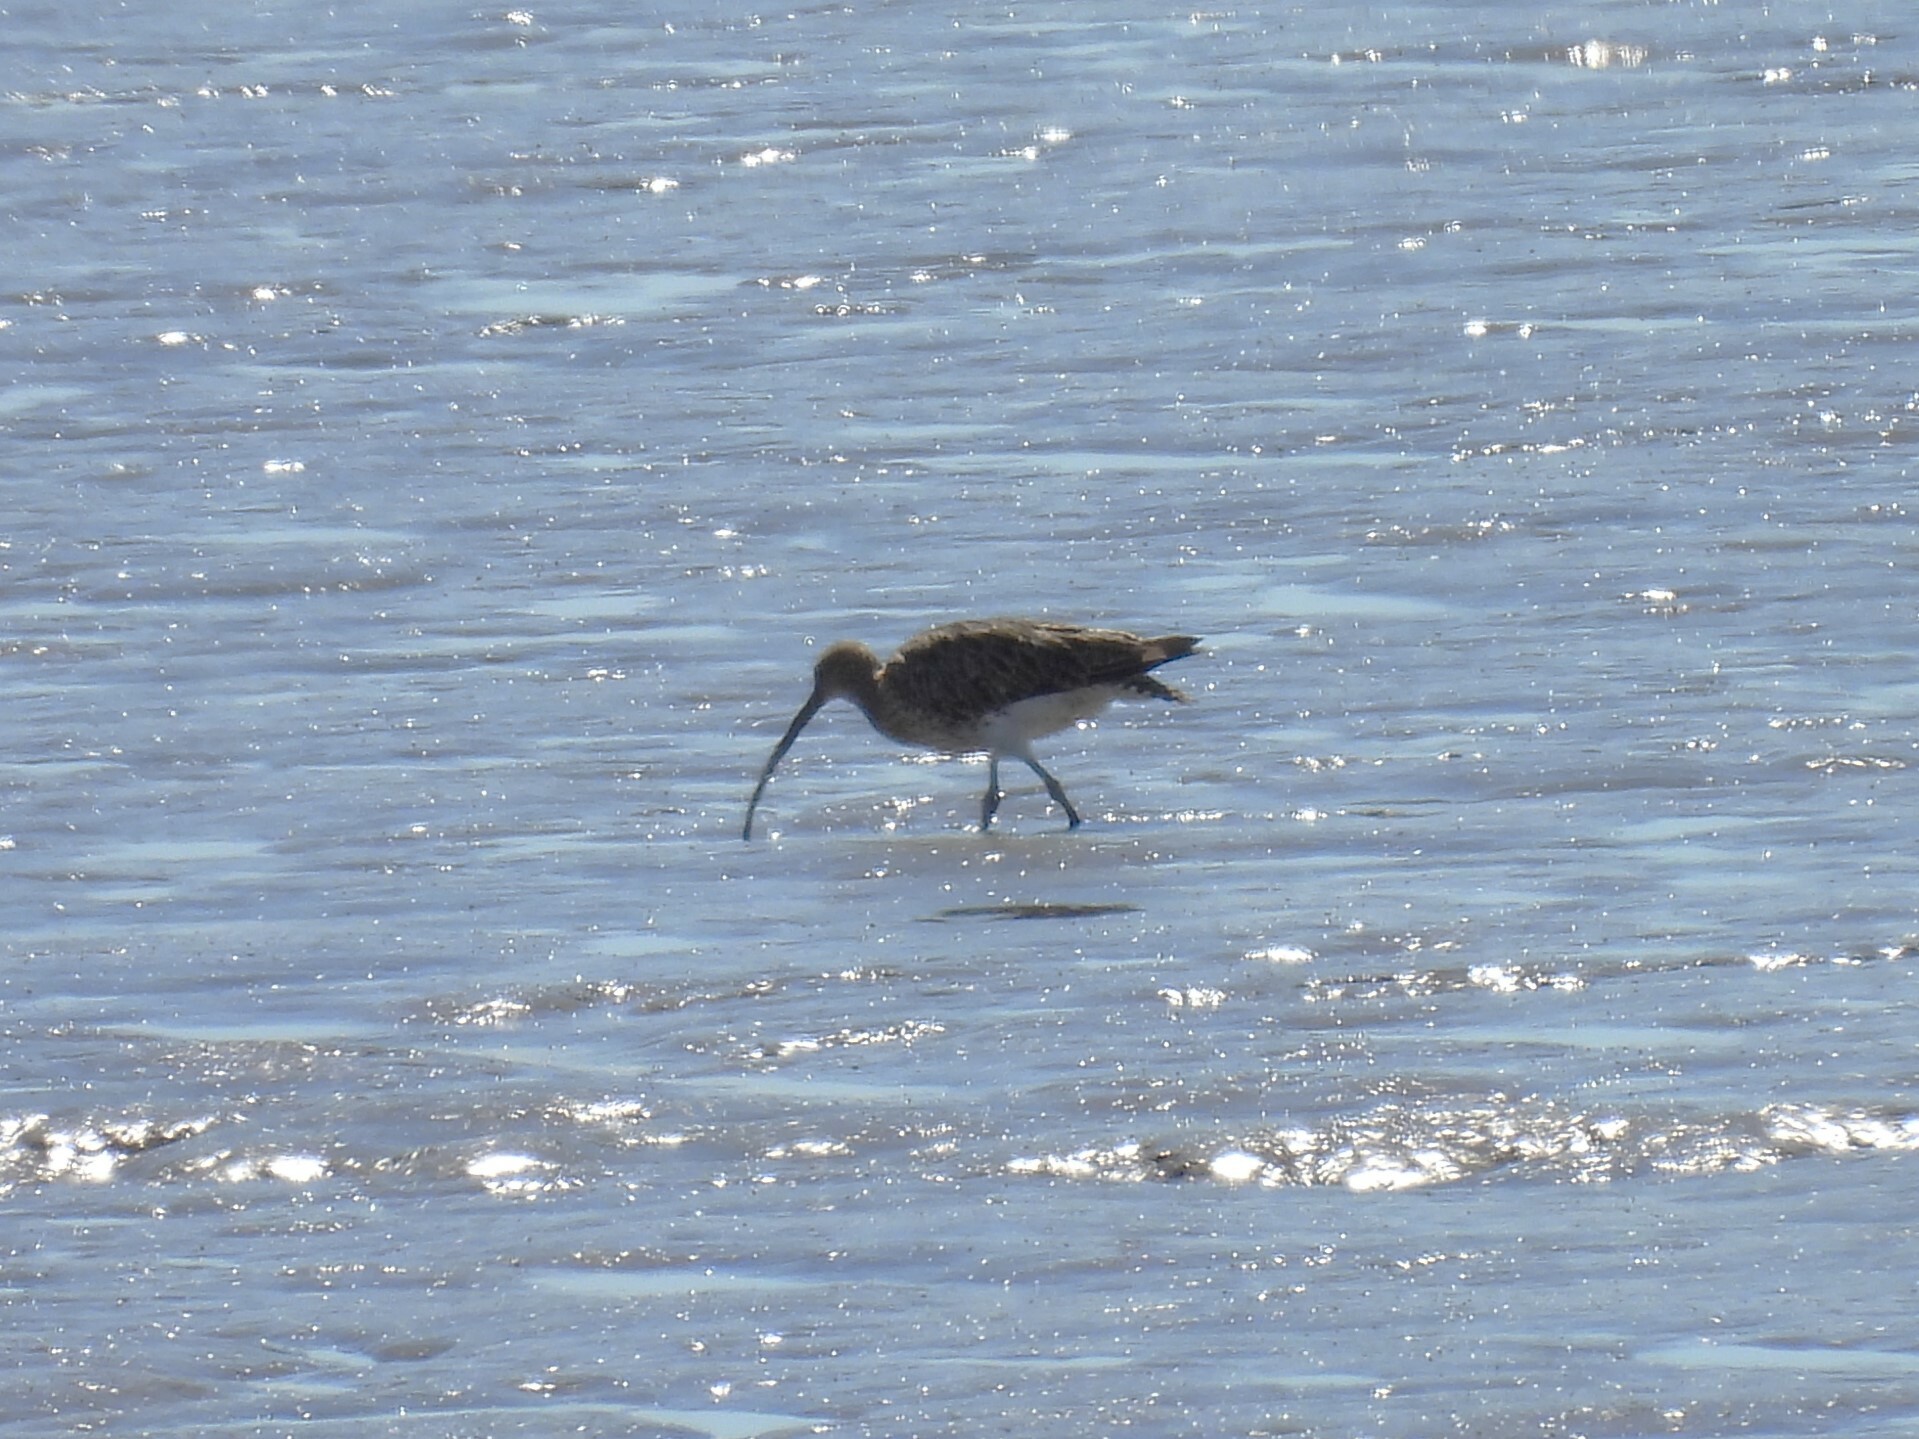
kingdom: Animalia
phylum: Chordata
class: Aves
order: Charadriiformes
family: Scolopacidae
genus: Numenius
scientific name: Numenius arquata
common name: Eurasian curlew
